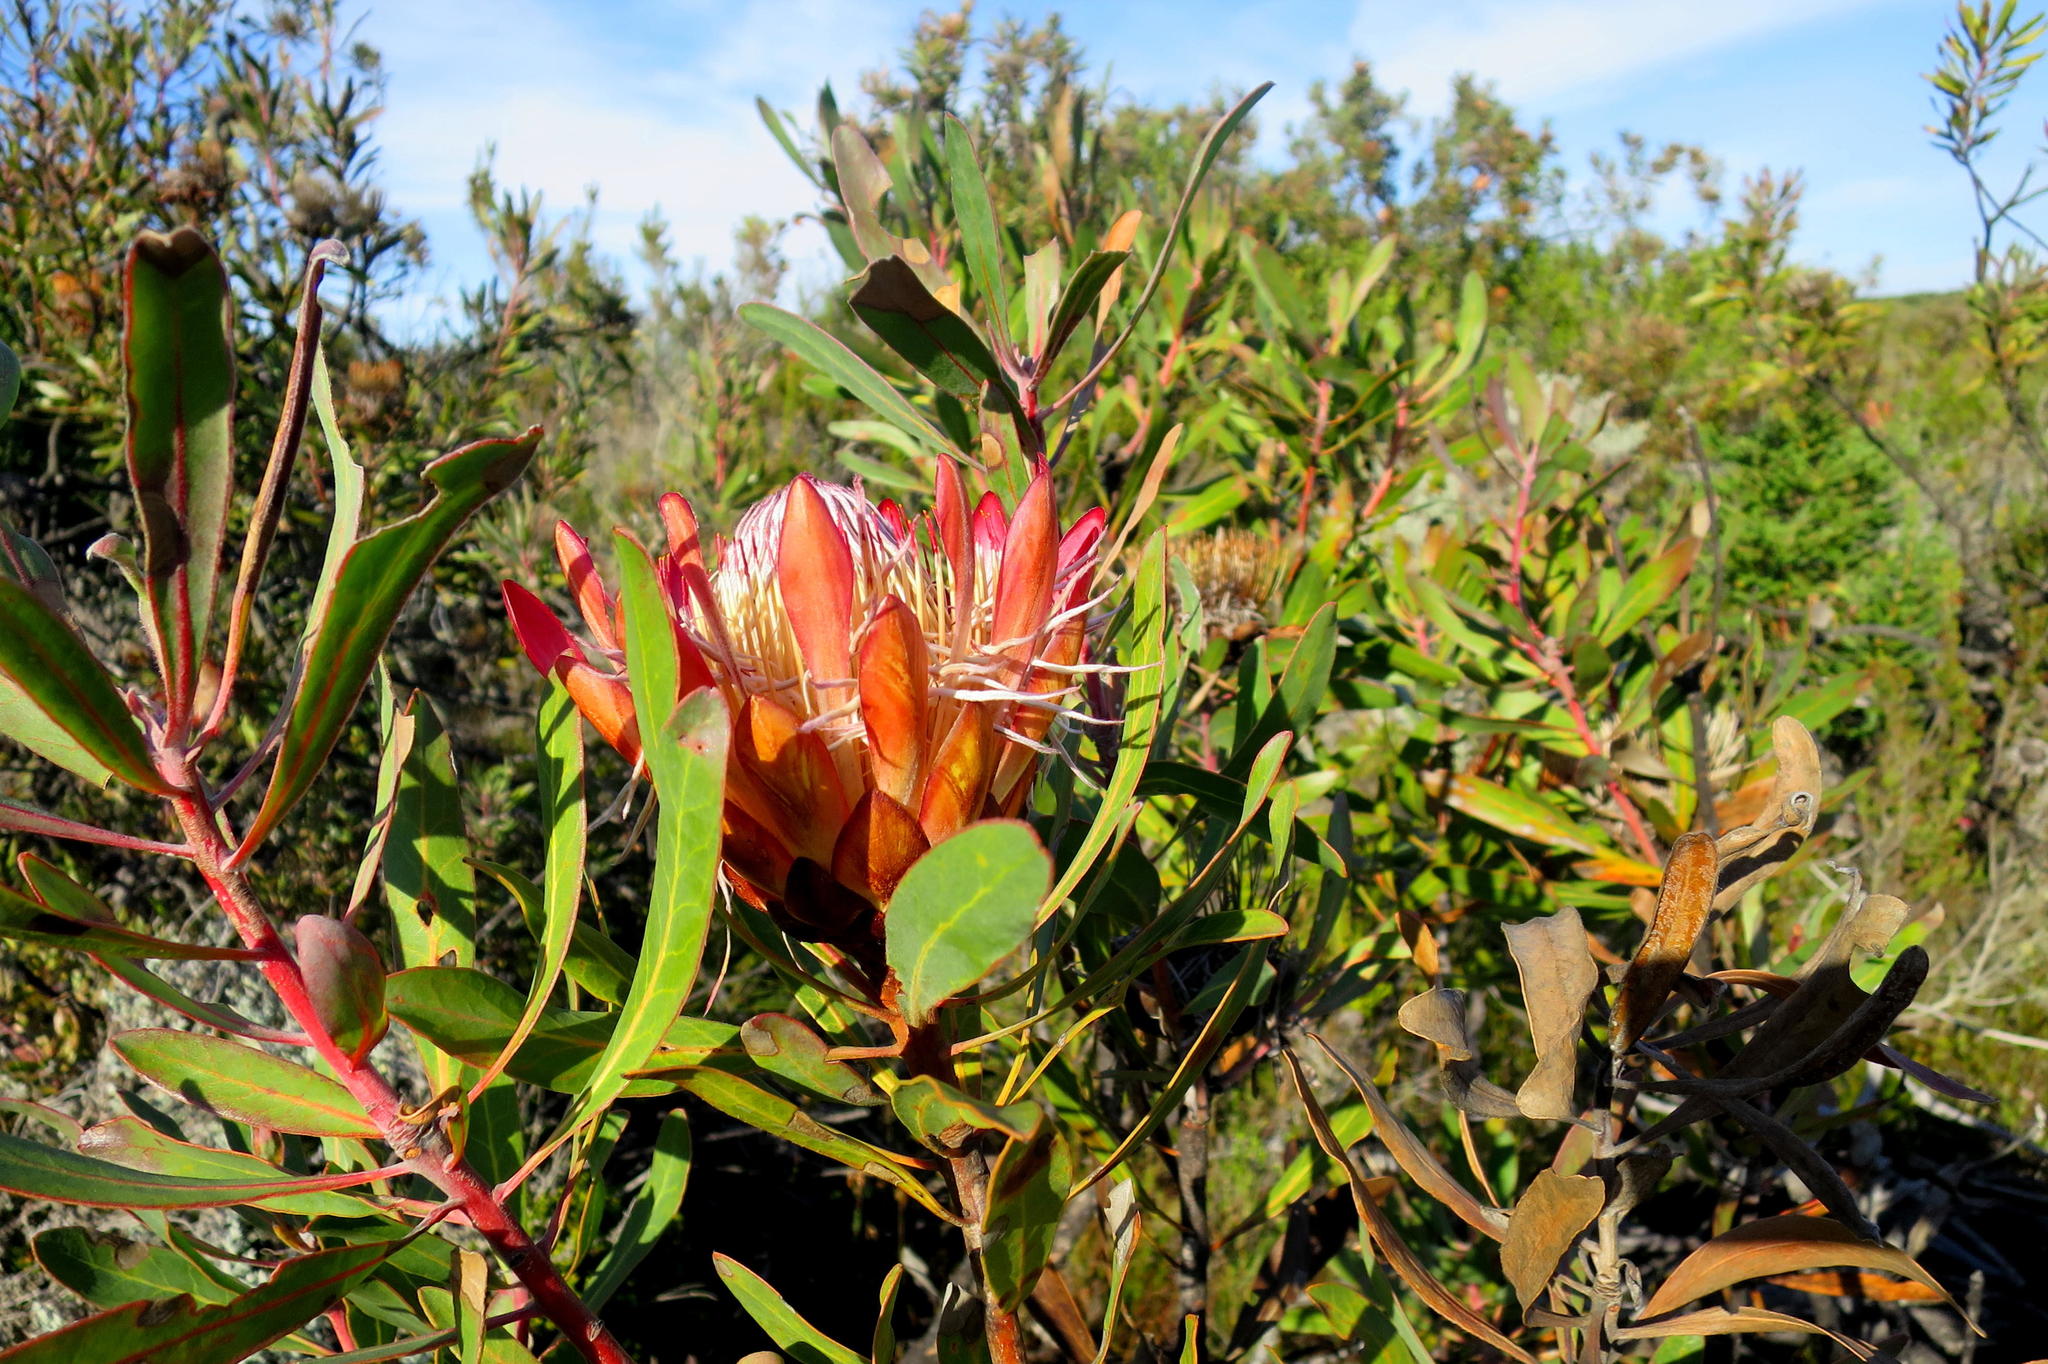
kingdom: Plantae
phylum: Tracheophyta
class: Magnoliopsida
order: Proteales
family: Proteaceae
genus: Protea
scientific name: Protea susannae
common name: Foetid-leaf sugarbush
